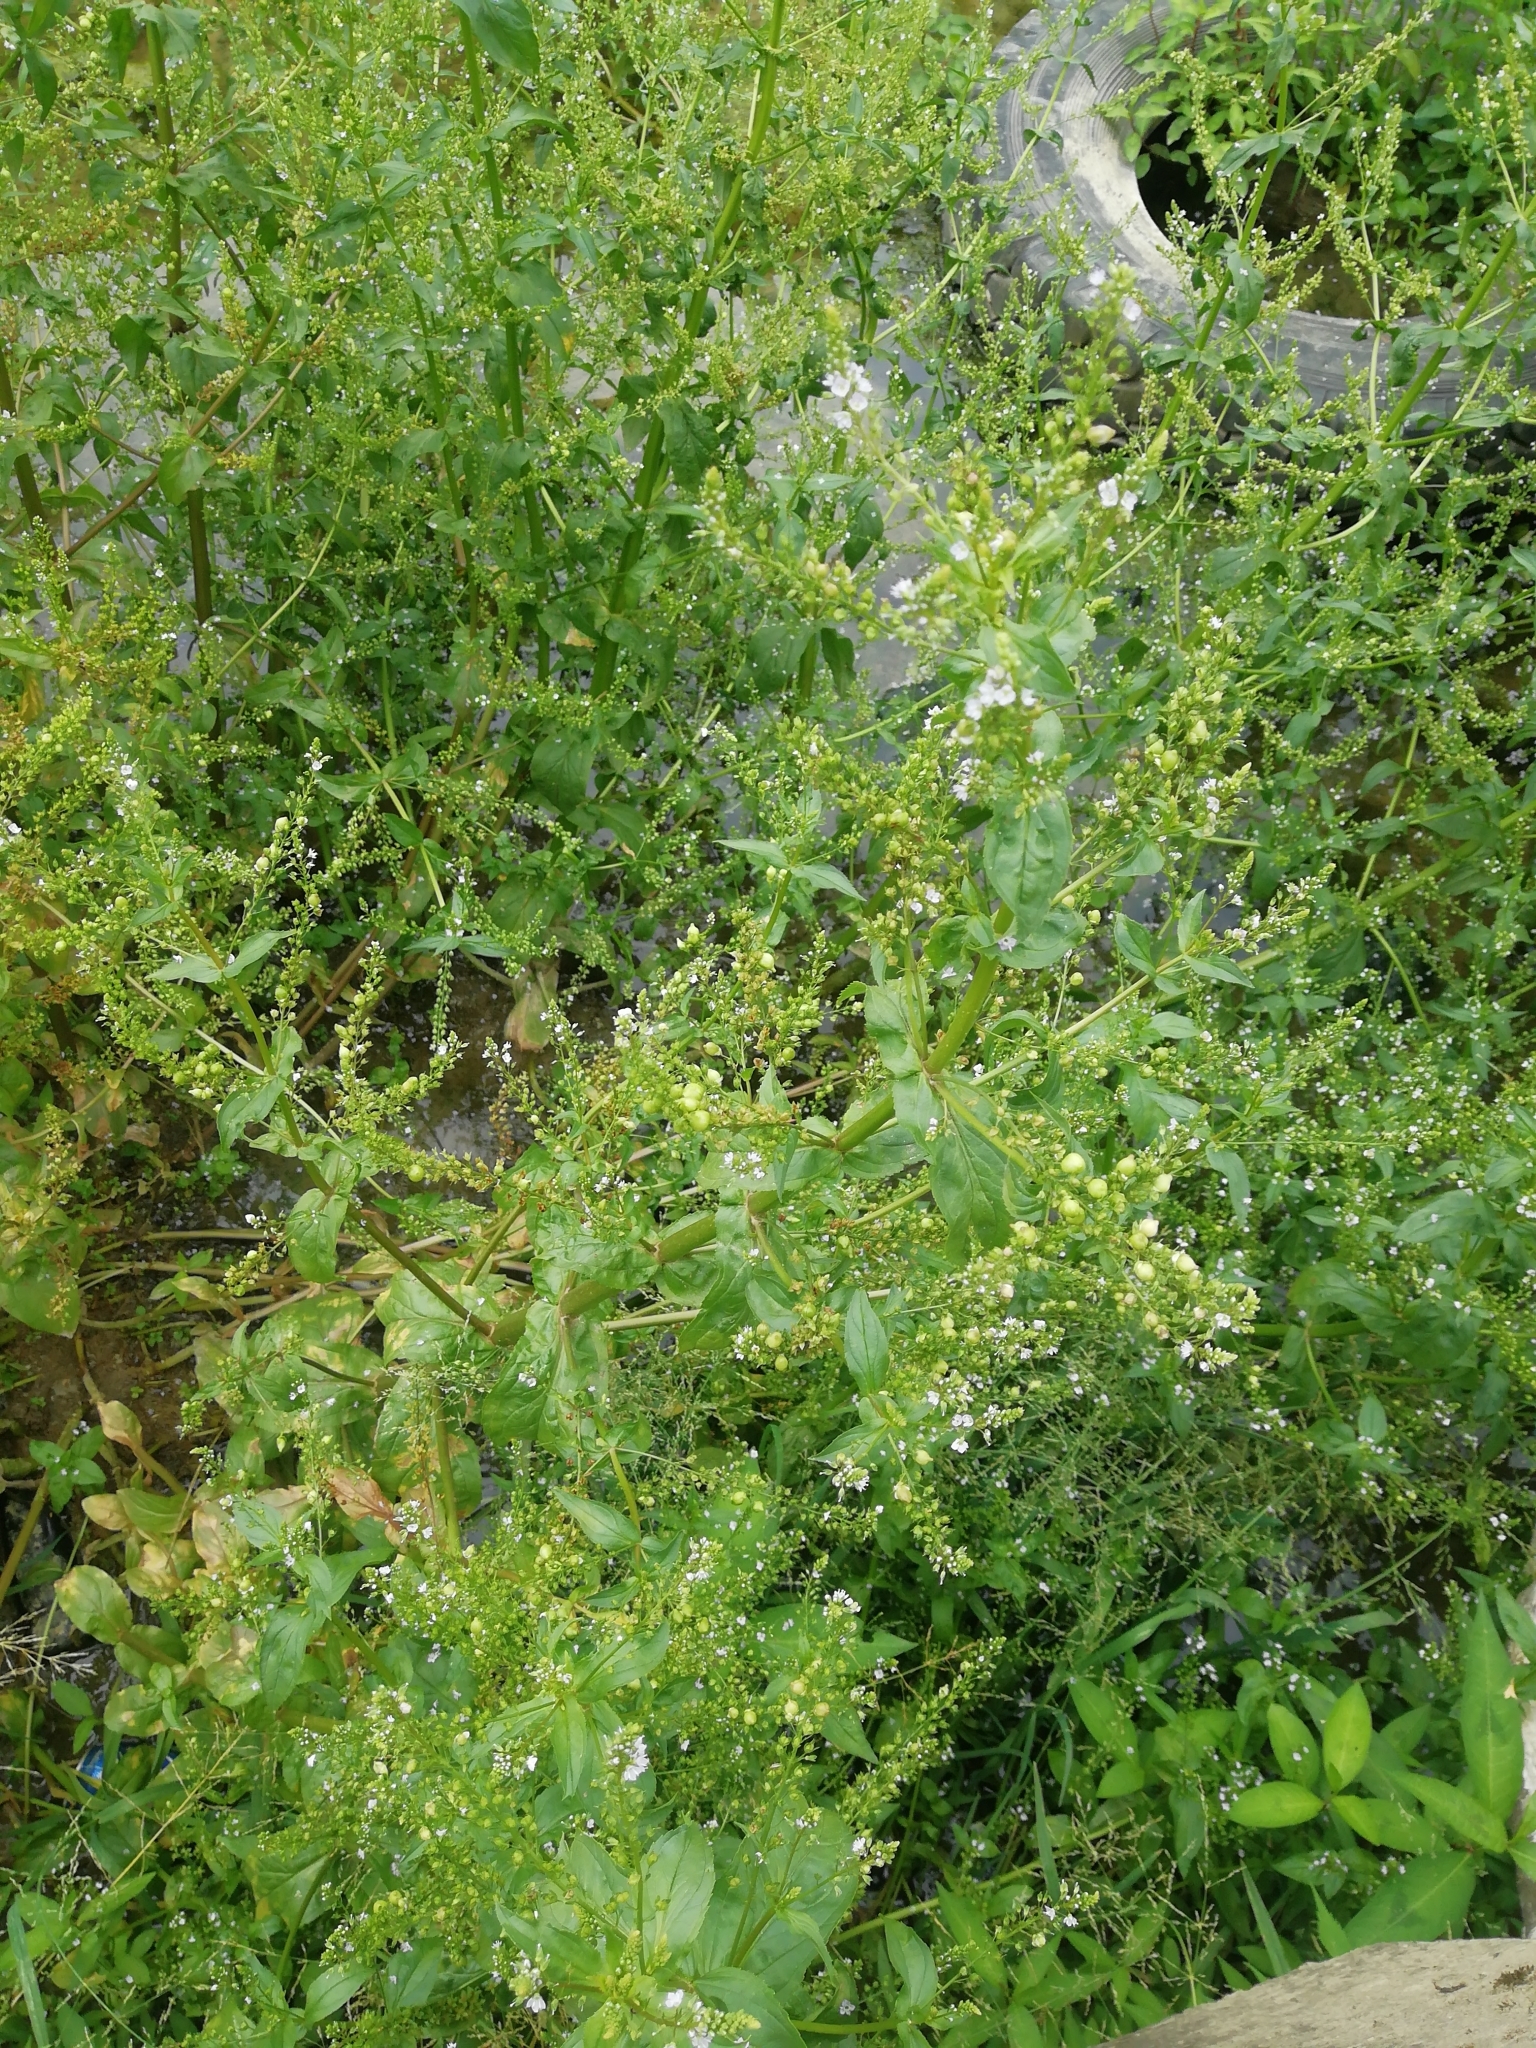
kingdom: Plantae
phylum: Tracheophyta
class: Magnoliopsida
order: Lamiales
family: Plantaginaceae
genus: Veronica
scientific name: Veronica anagallis-aquatica
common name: Water speedwell
